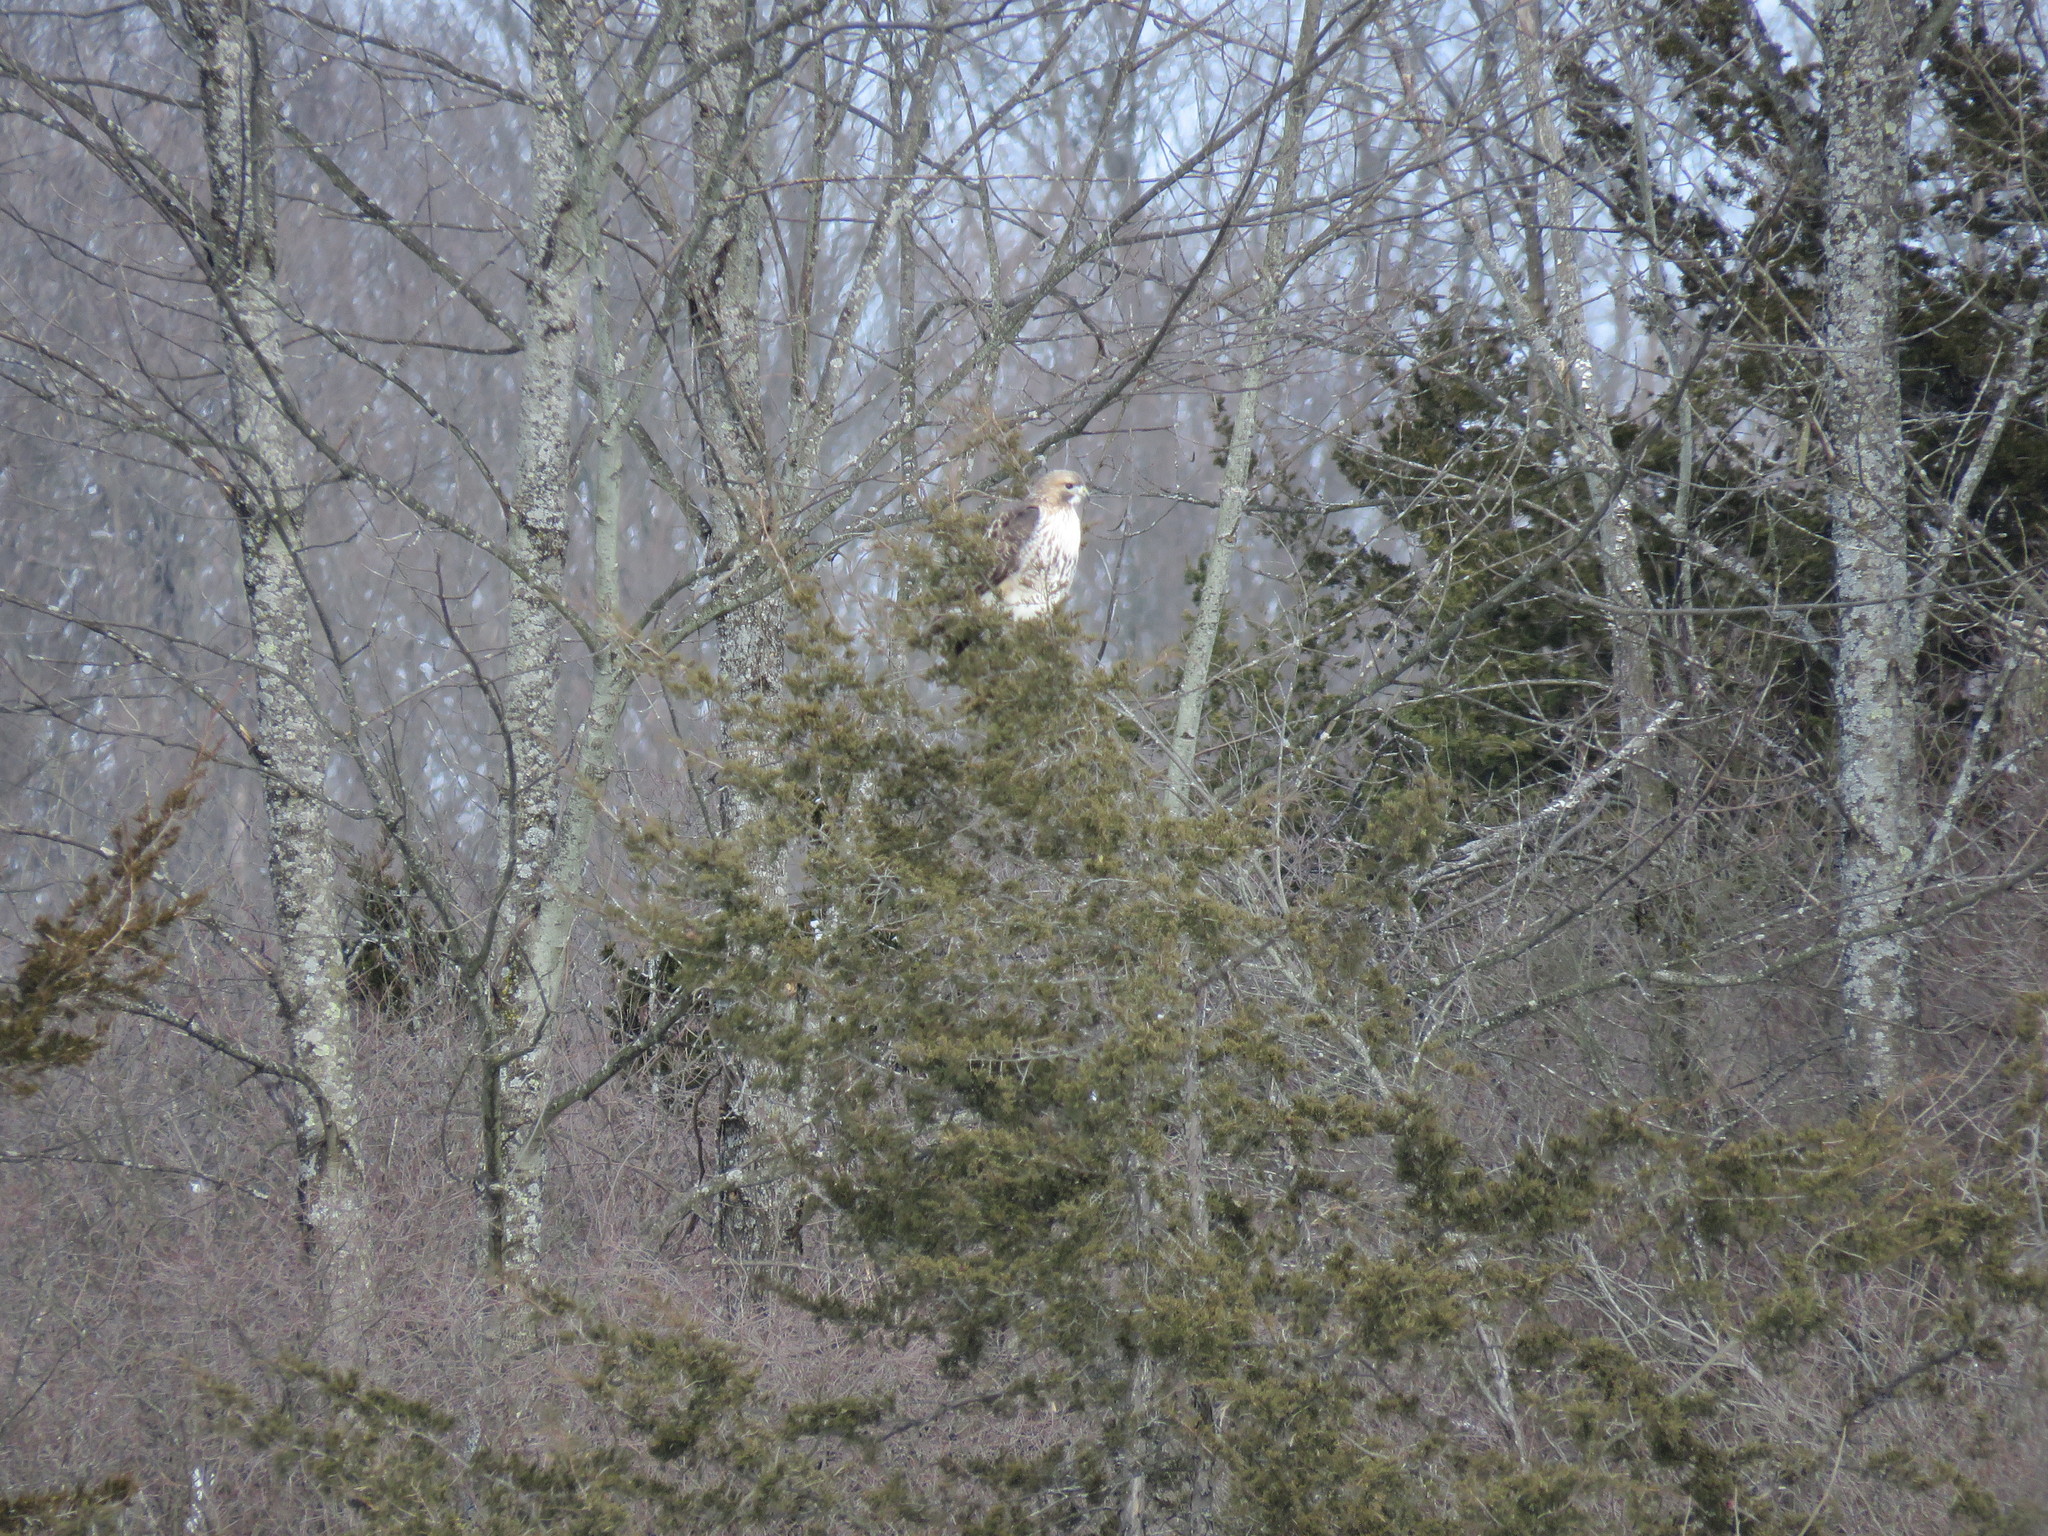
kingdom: Animalia
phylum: Chordata
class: Aves
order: Accipitriformes
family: Accipitridae
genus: Buteo
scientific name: Buteo jamaicensis
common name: Red-tailed hawk
